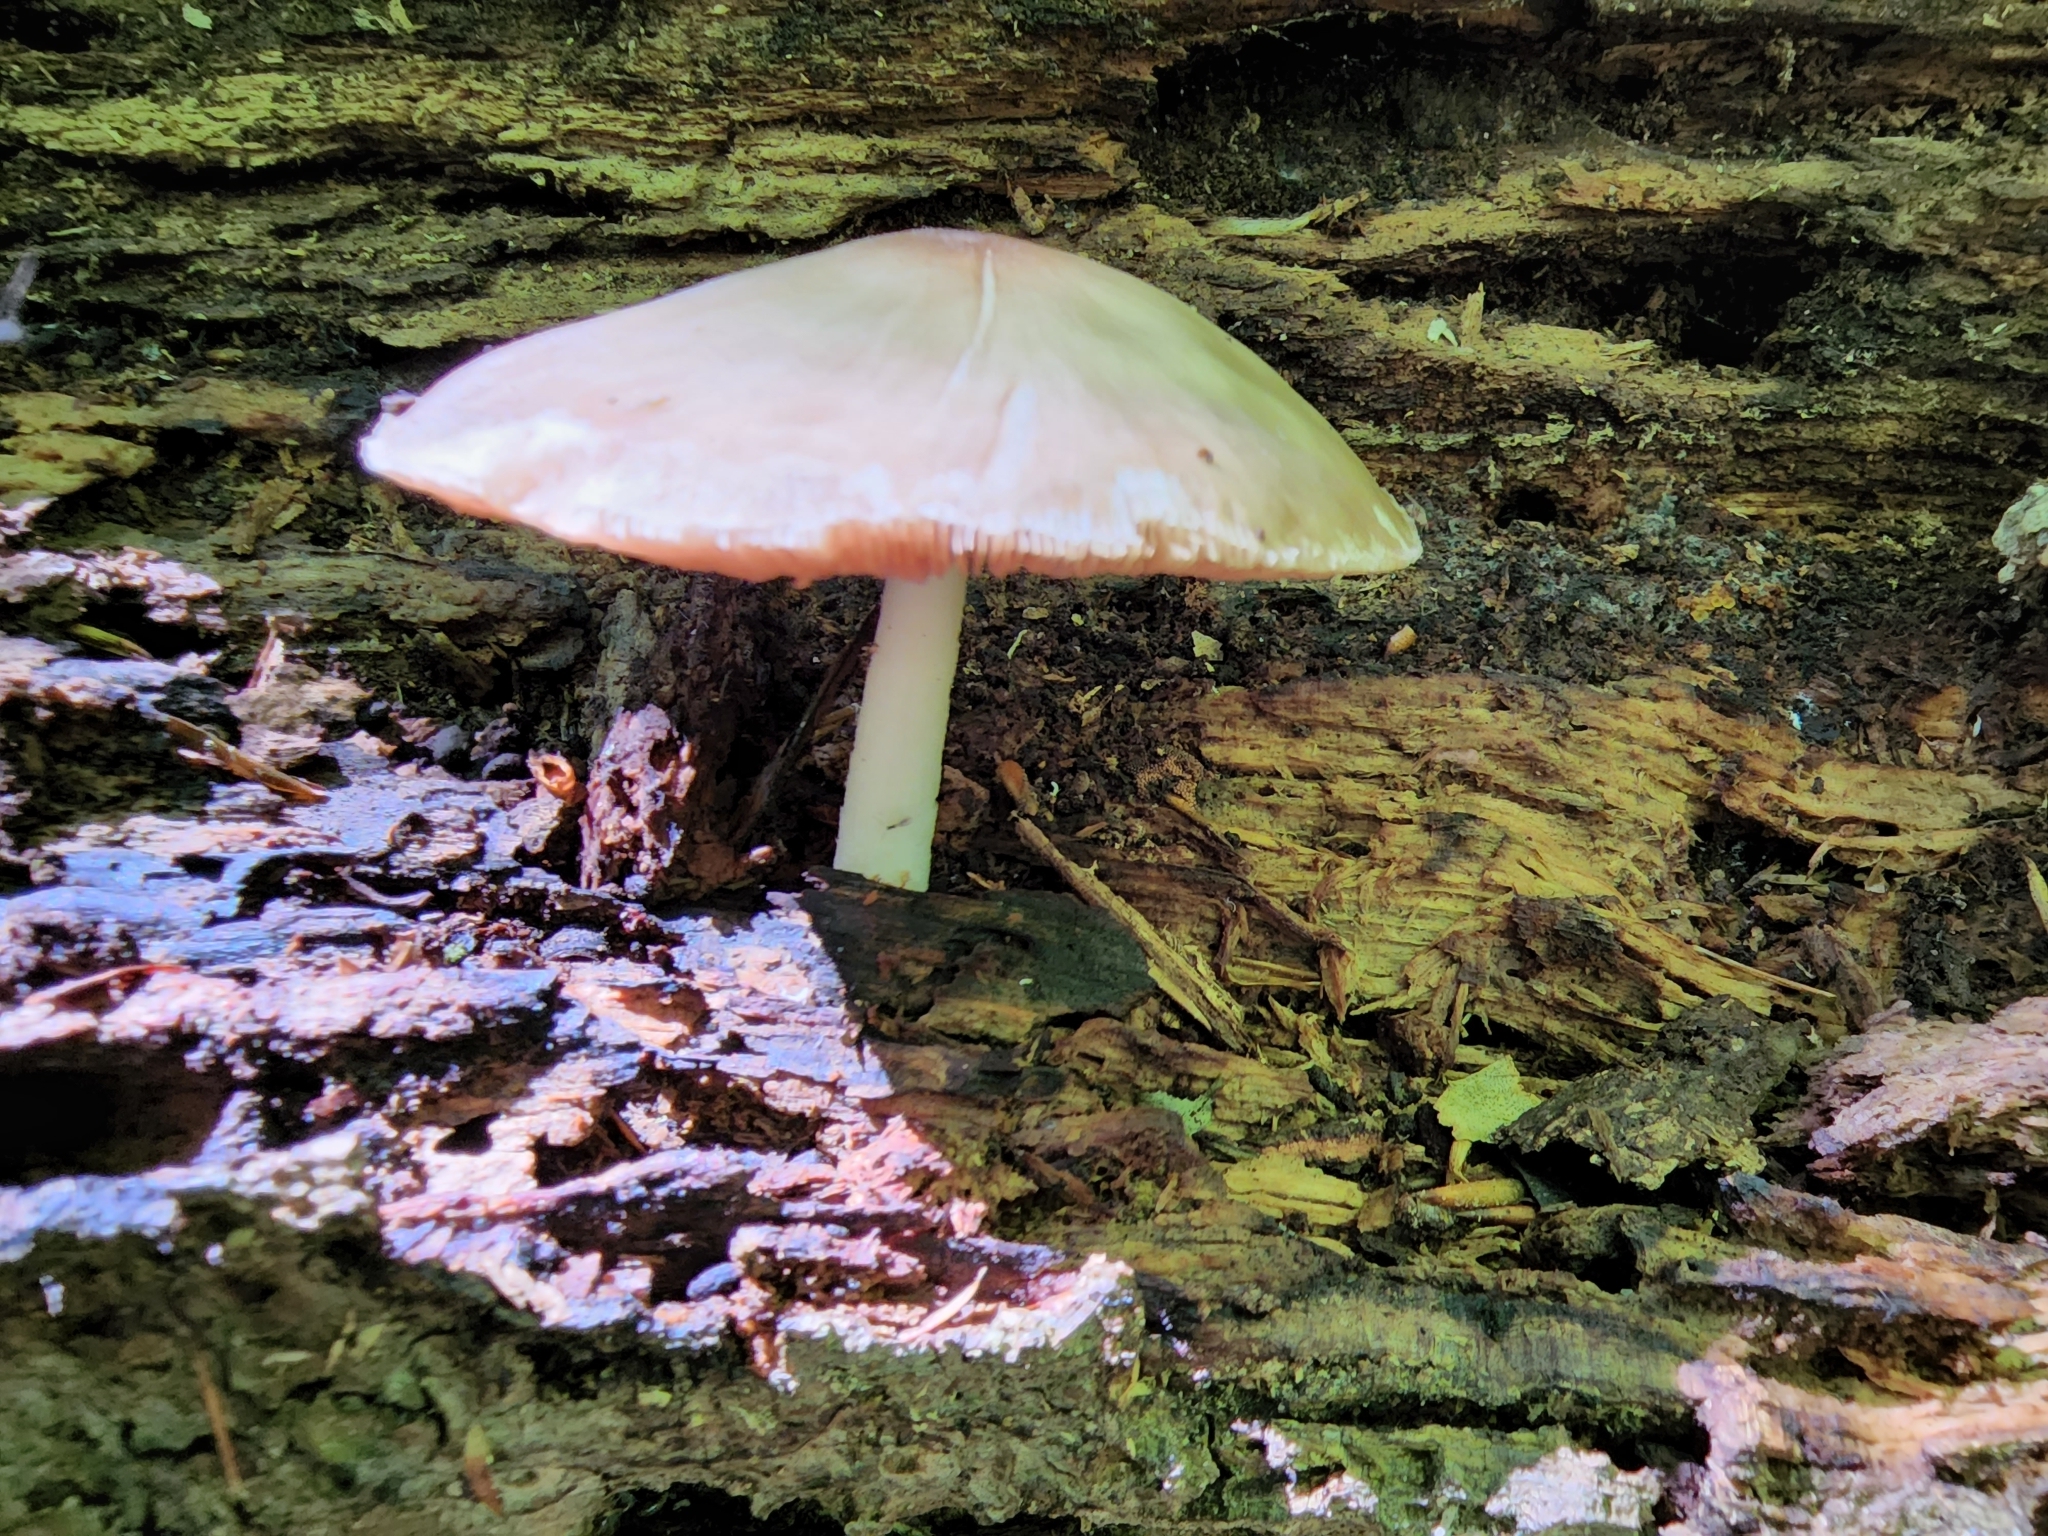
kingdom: Fungi
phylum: Basidiomycota
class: Agaricomycetes
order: Agaricales
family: Pluteaceae
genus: Pluteus
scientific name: Pluteus cervinus
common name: Deer shield
